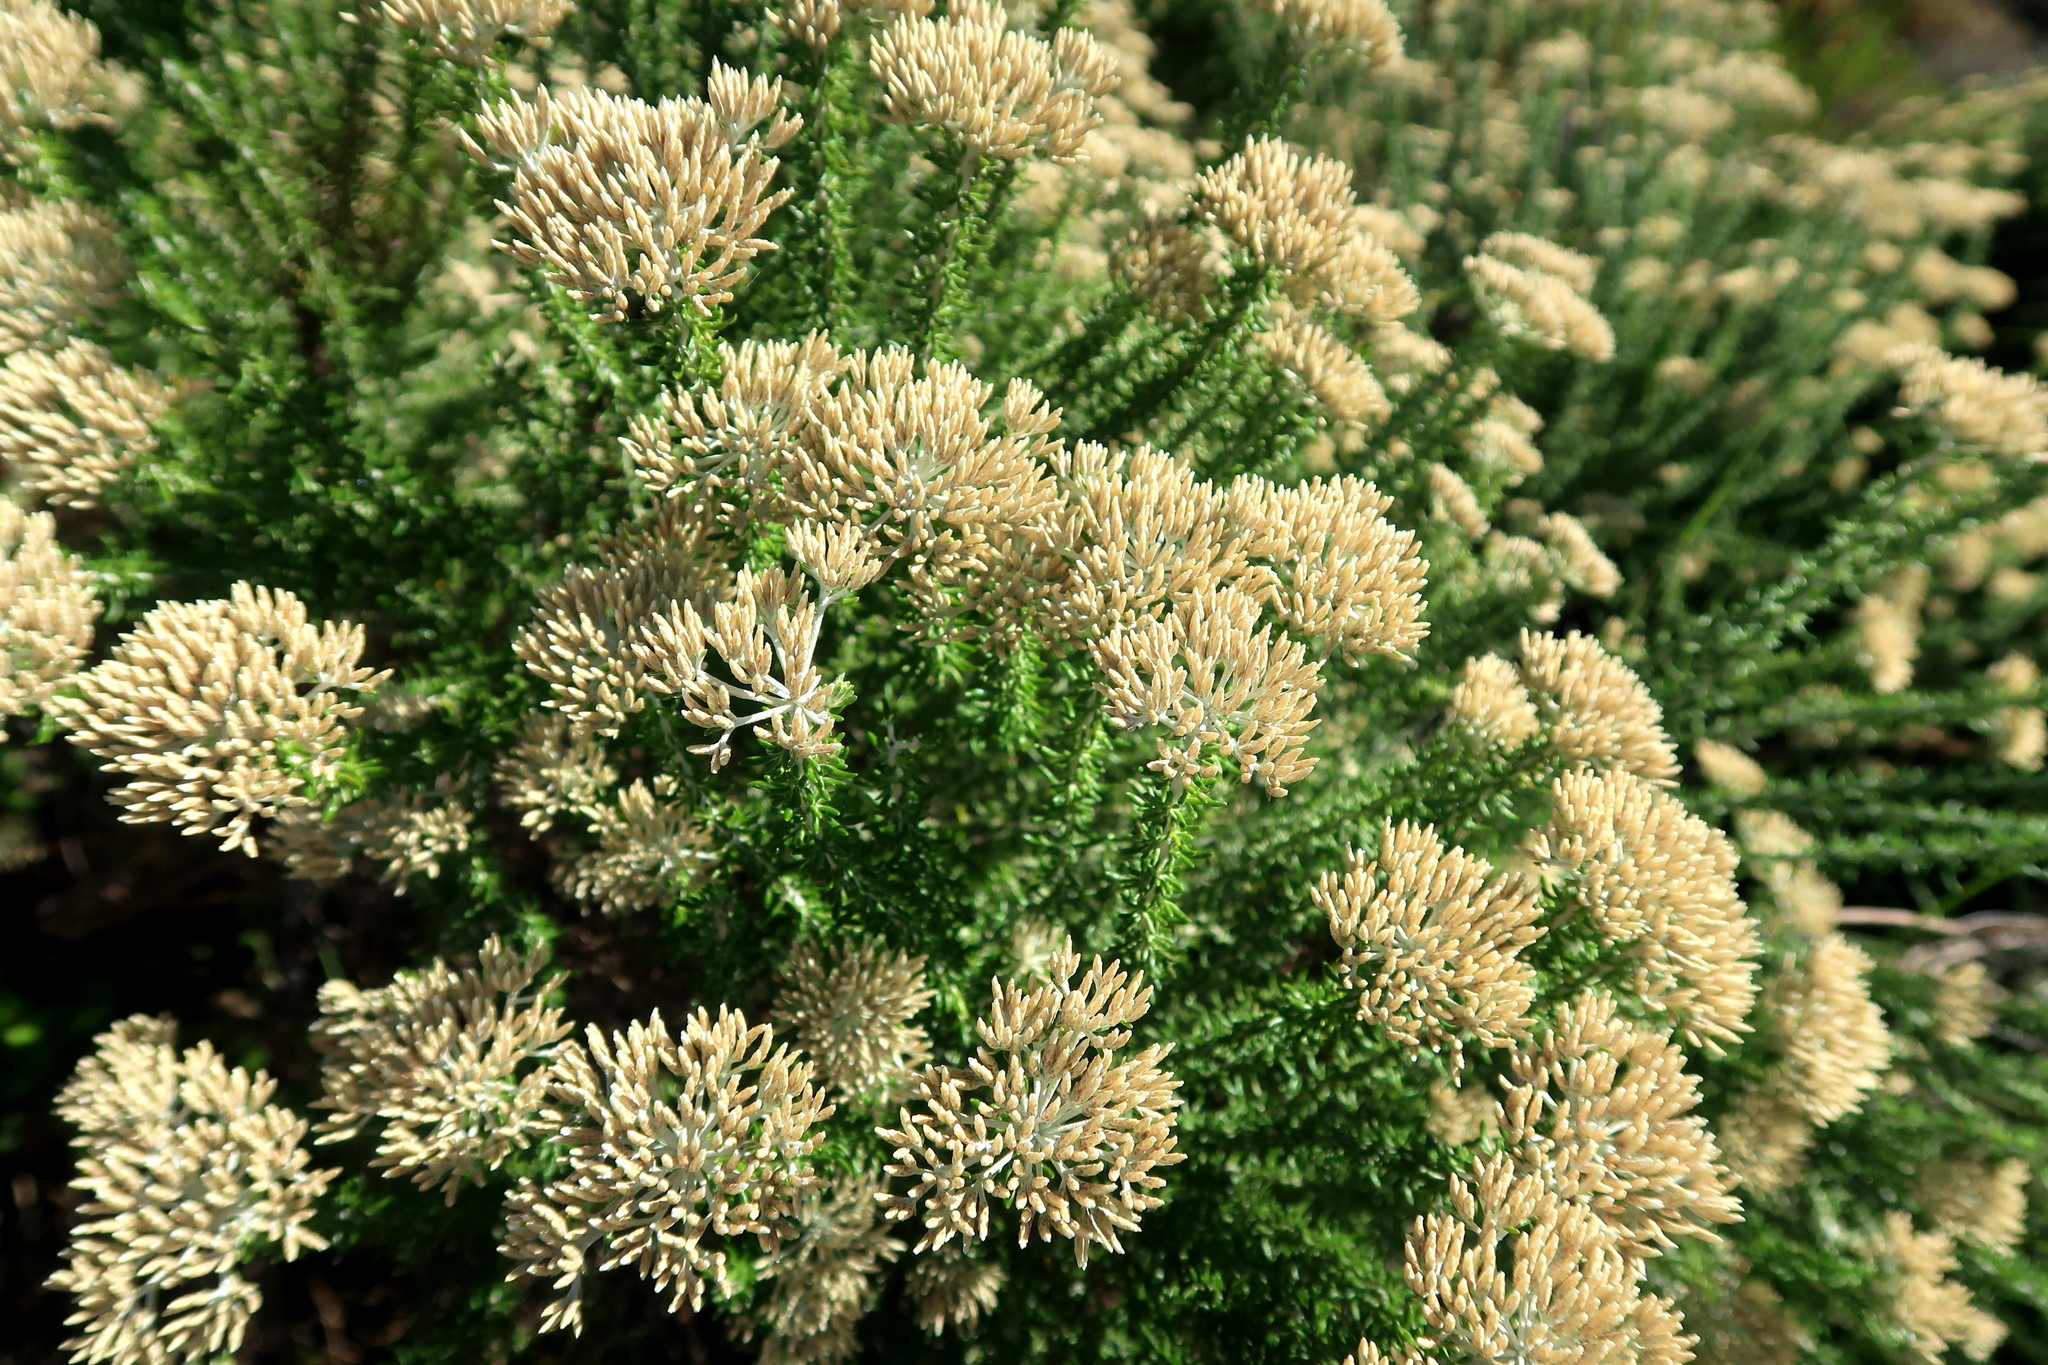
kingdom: Plantae
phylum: Tracheophyta
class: Magnoliopsida
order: Asterales
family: Asteraceae
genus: Metalasia
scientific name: Metalasia muricata
